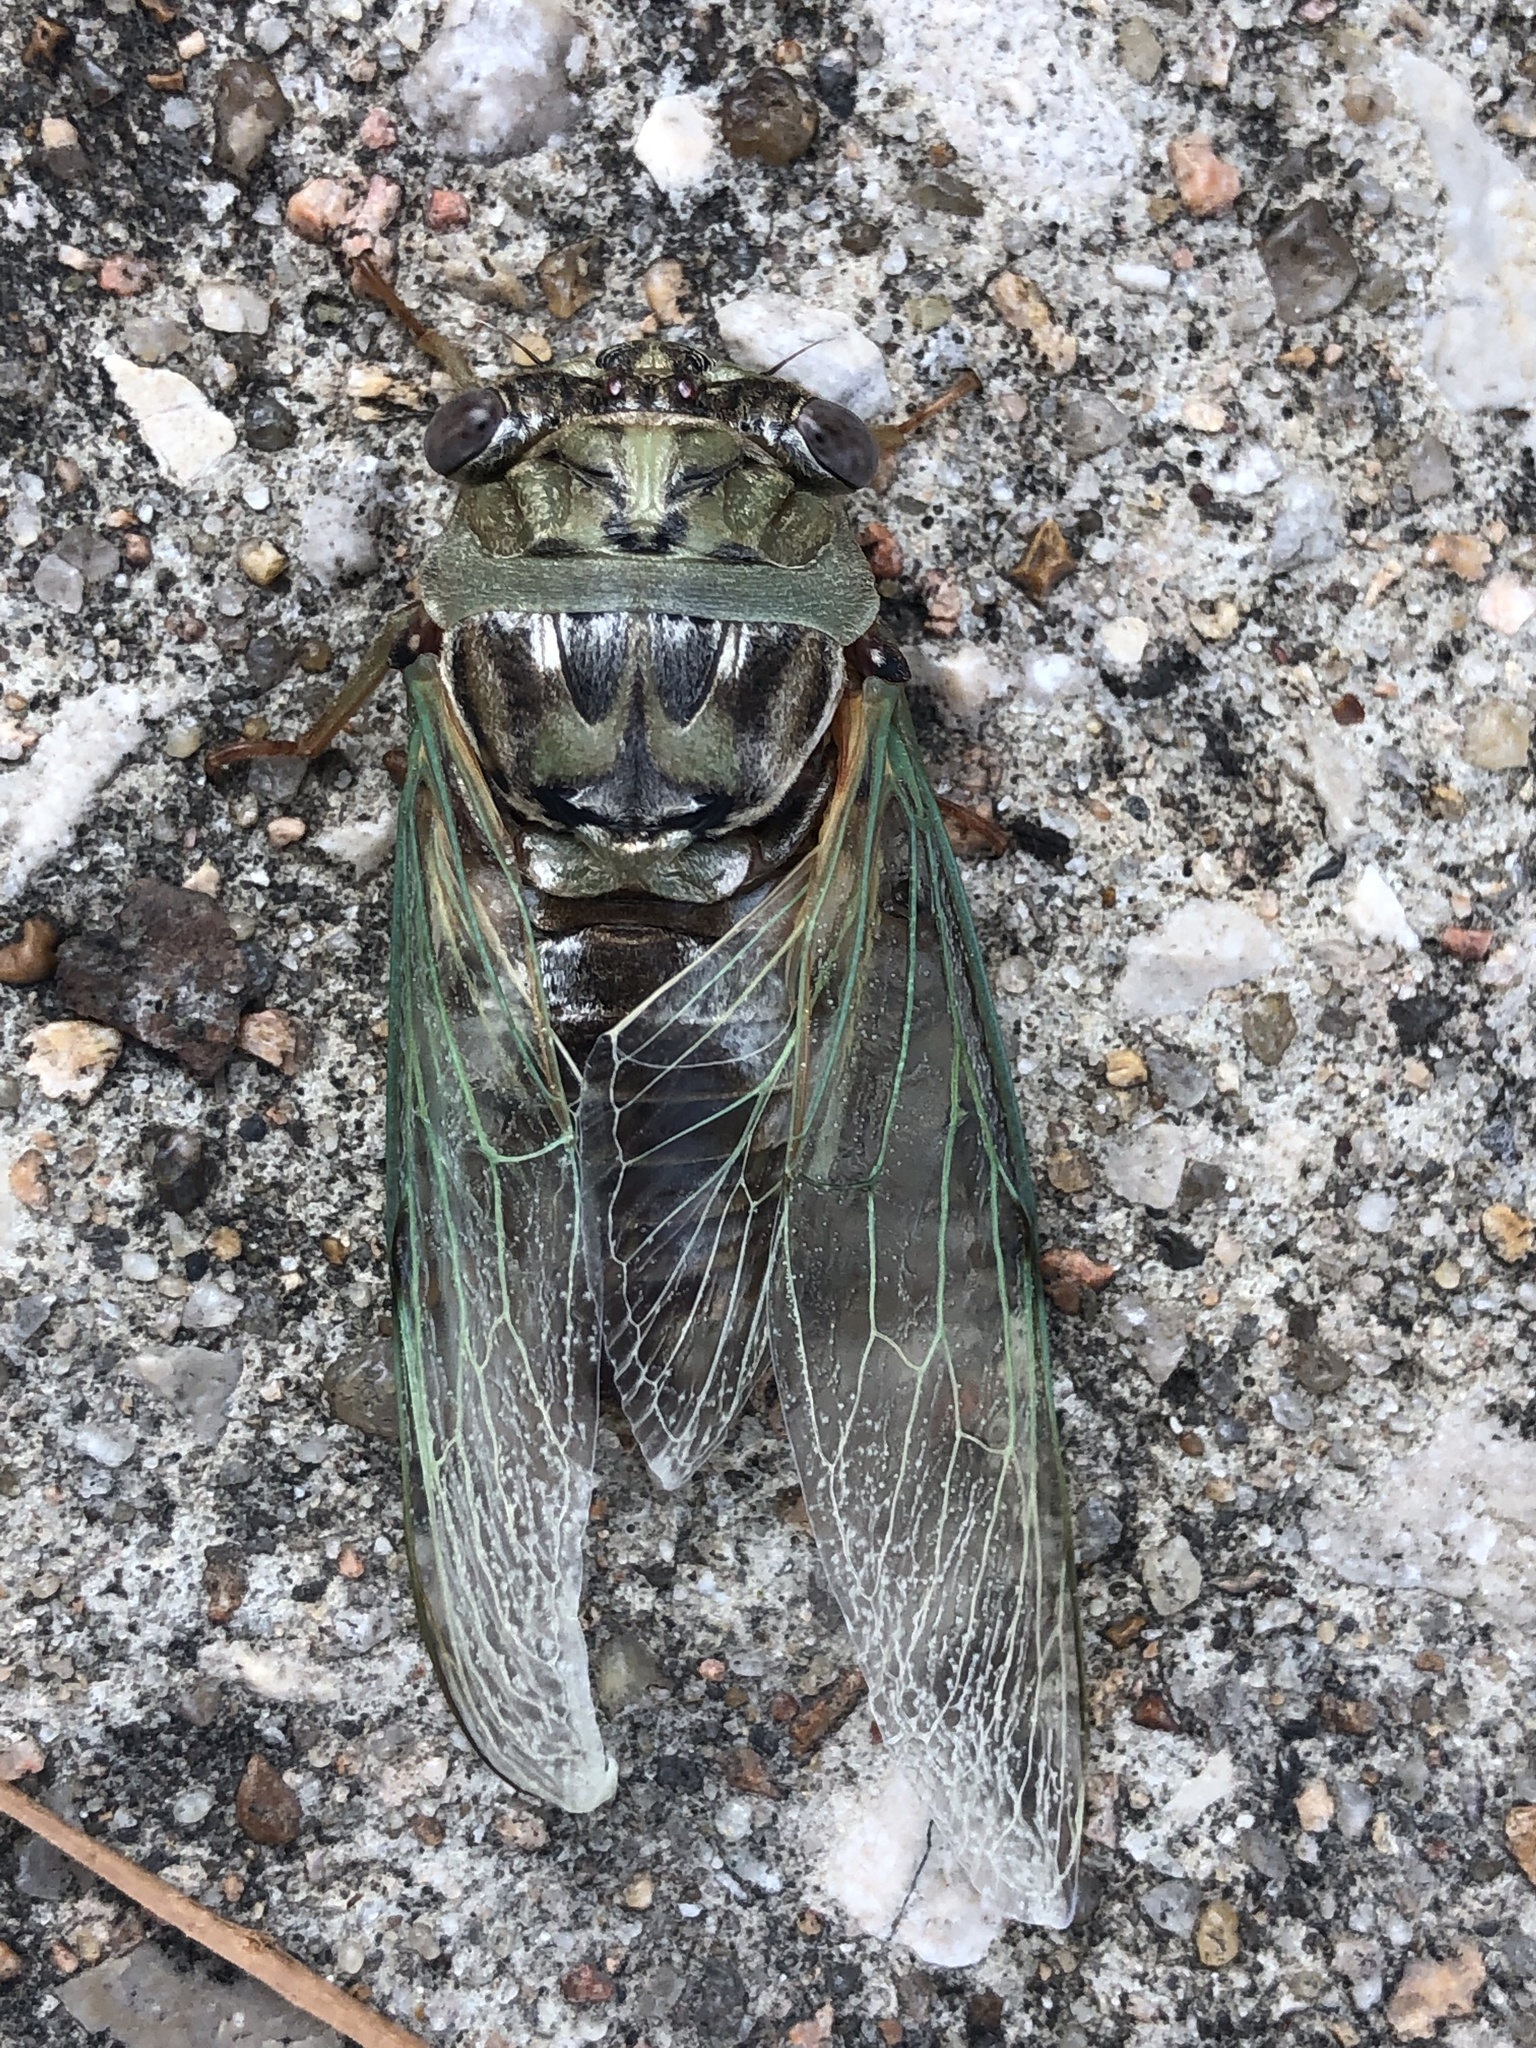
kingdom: Animalia
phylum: Arthropoda
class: Insecta
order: Hemiptera
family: Cicadidae
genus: Megatibicen
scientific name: Megatibicen resh
